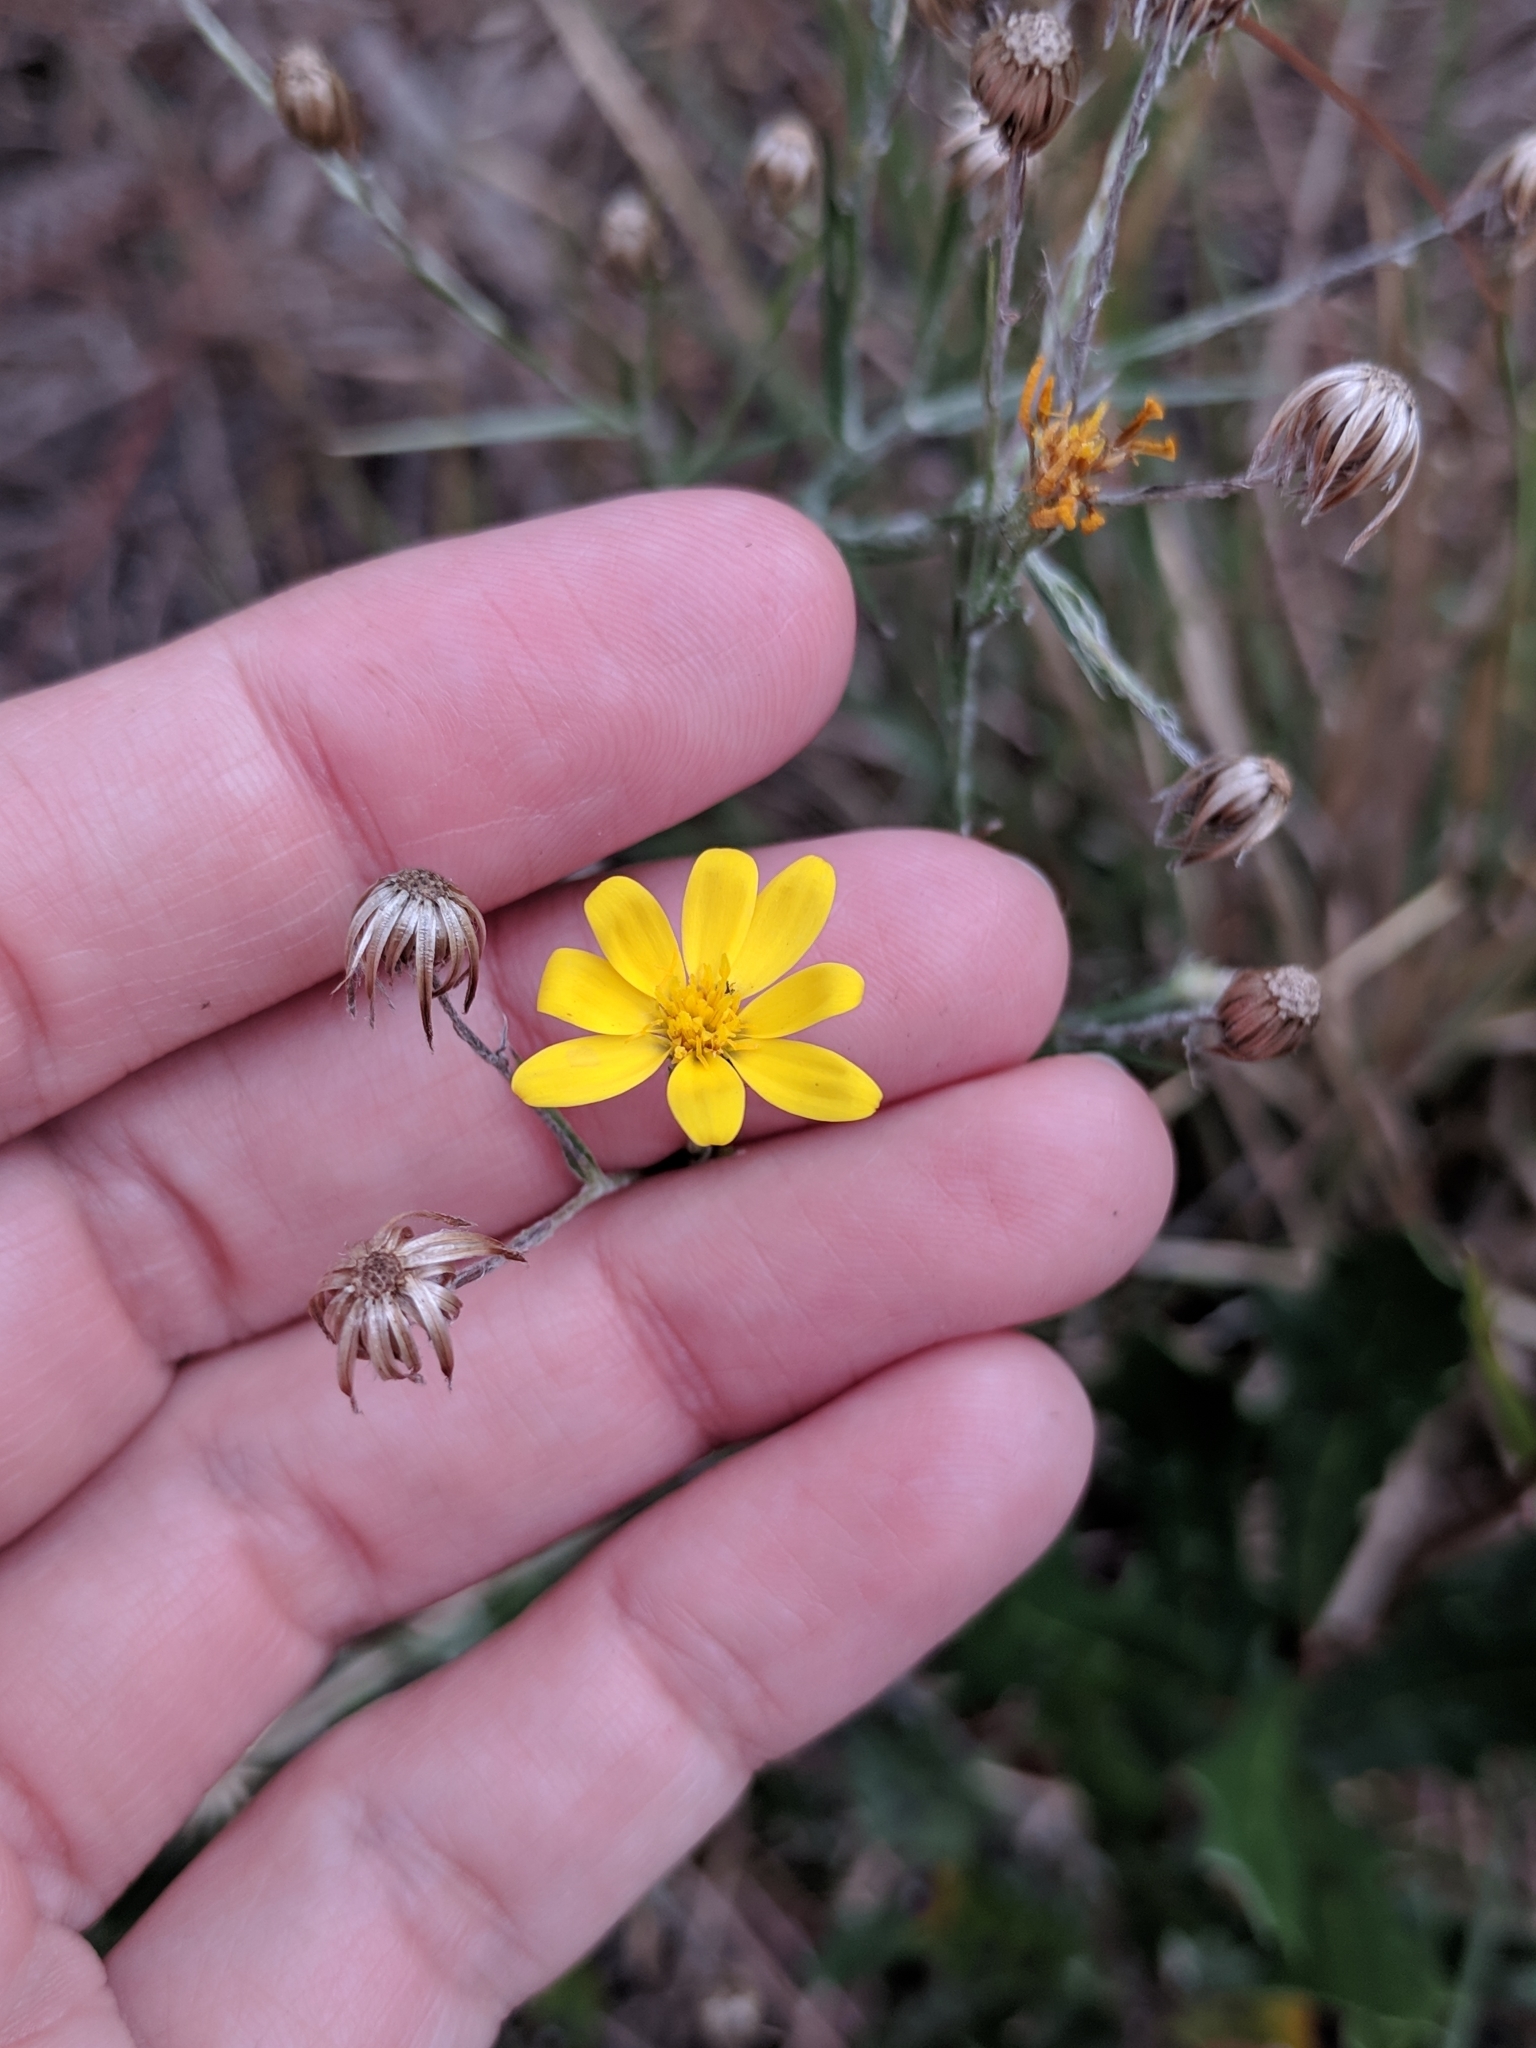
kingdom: Plantae
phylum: Tracheophyta
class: Magnoliopsida
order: Asterales
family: Asteraceae
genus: Pityopsis
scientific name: Pityopsis graminifolia
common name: Grass-leaf golden-aster
